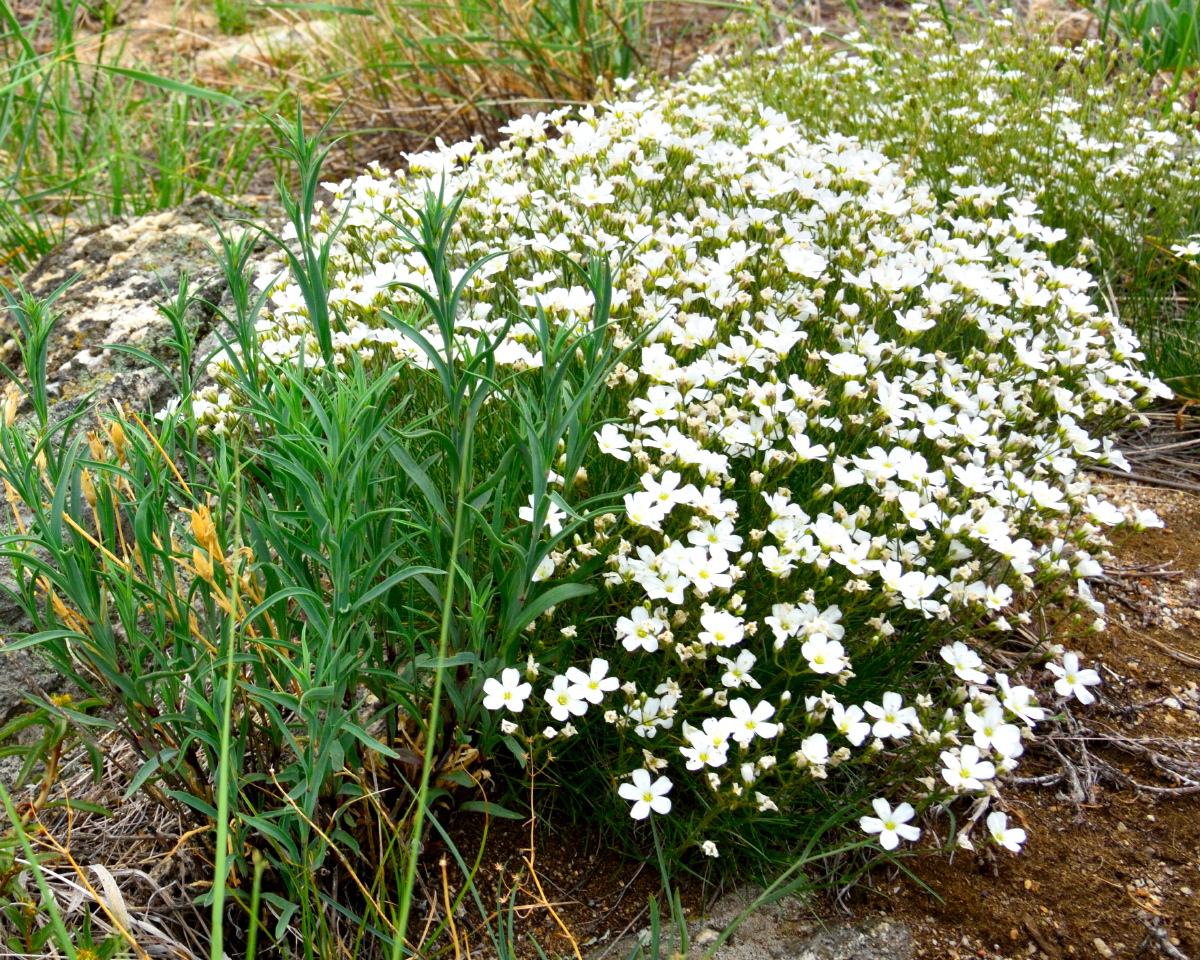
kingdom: Plantae
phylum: Tracheophyta
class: Magnoliopsida
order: Caryophyllales
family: Caryophyllaceae
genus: Eremogone
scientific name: Eremogone meyeri
